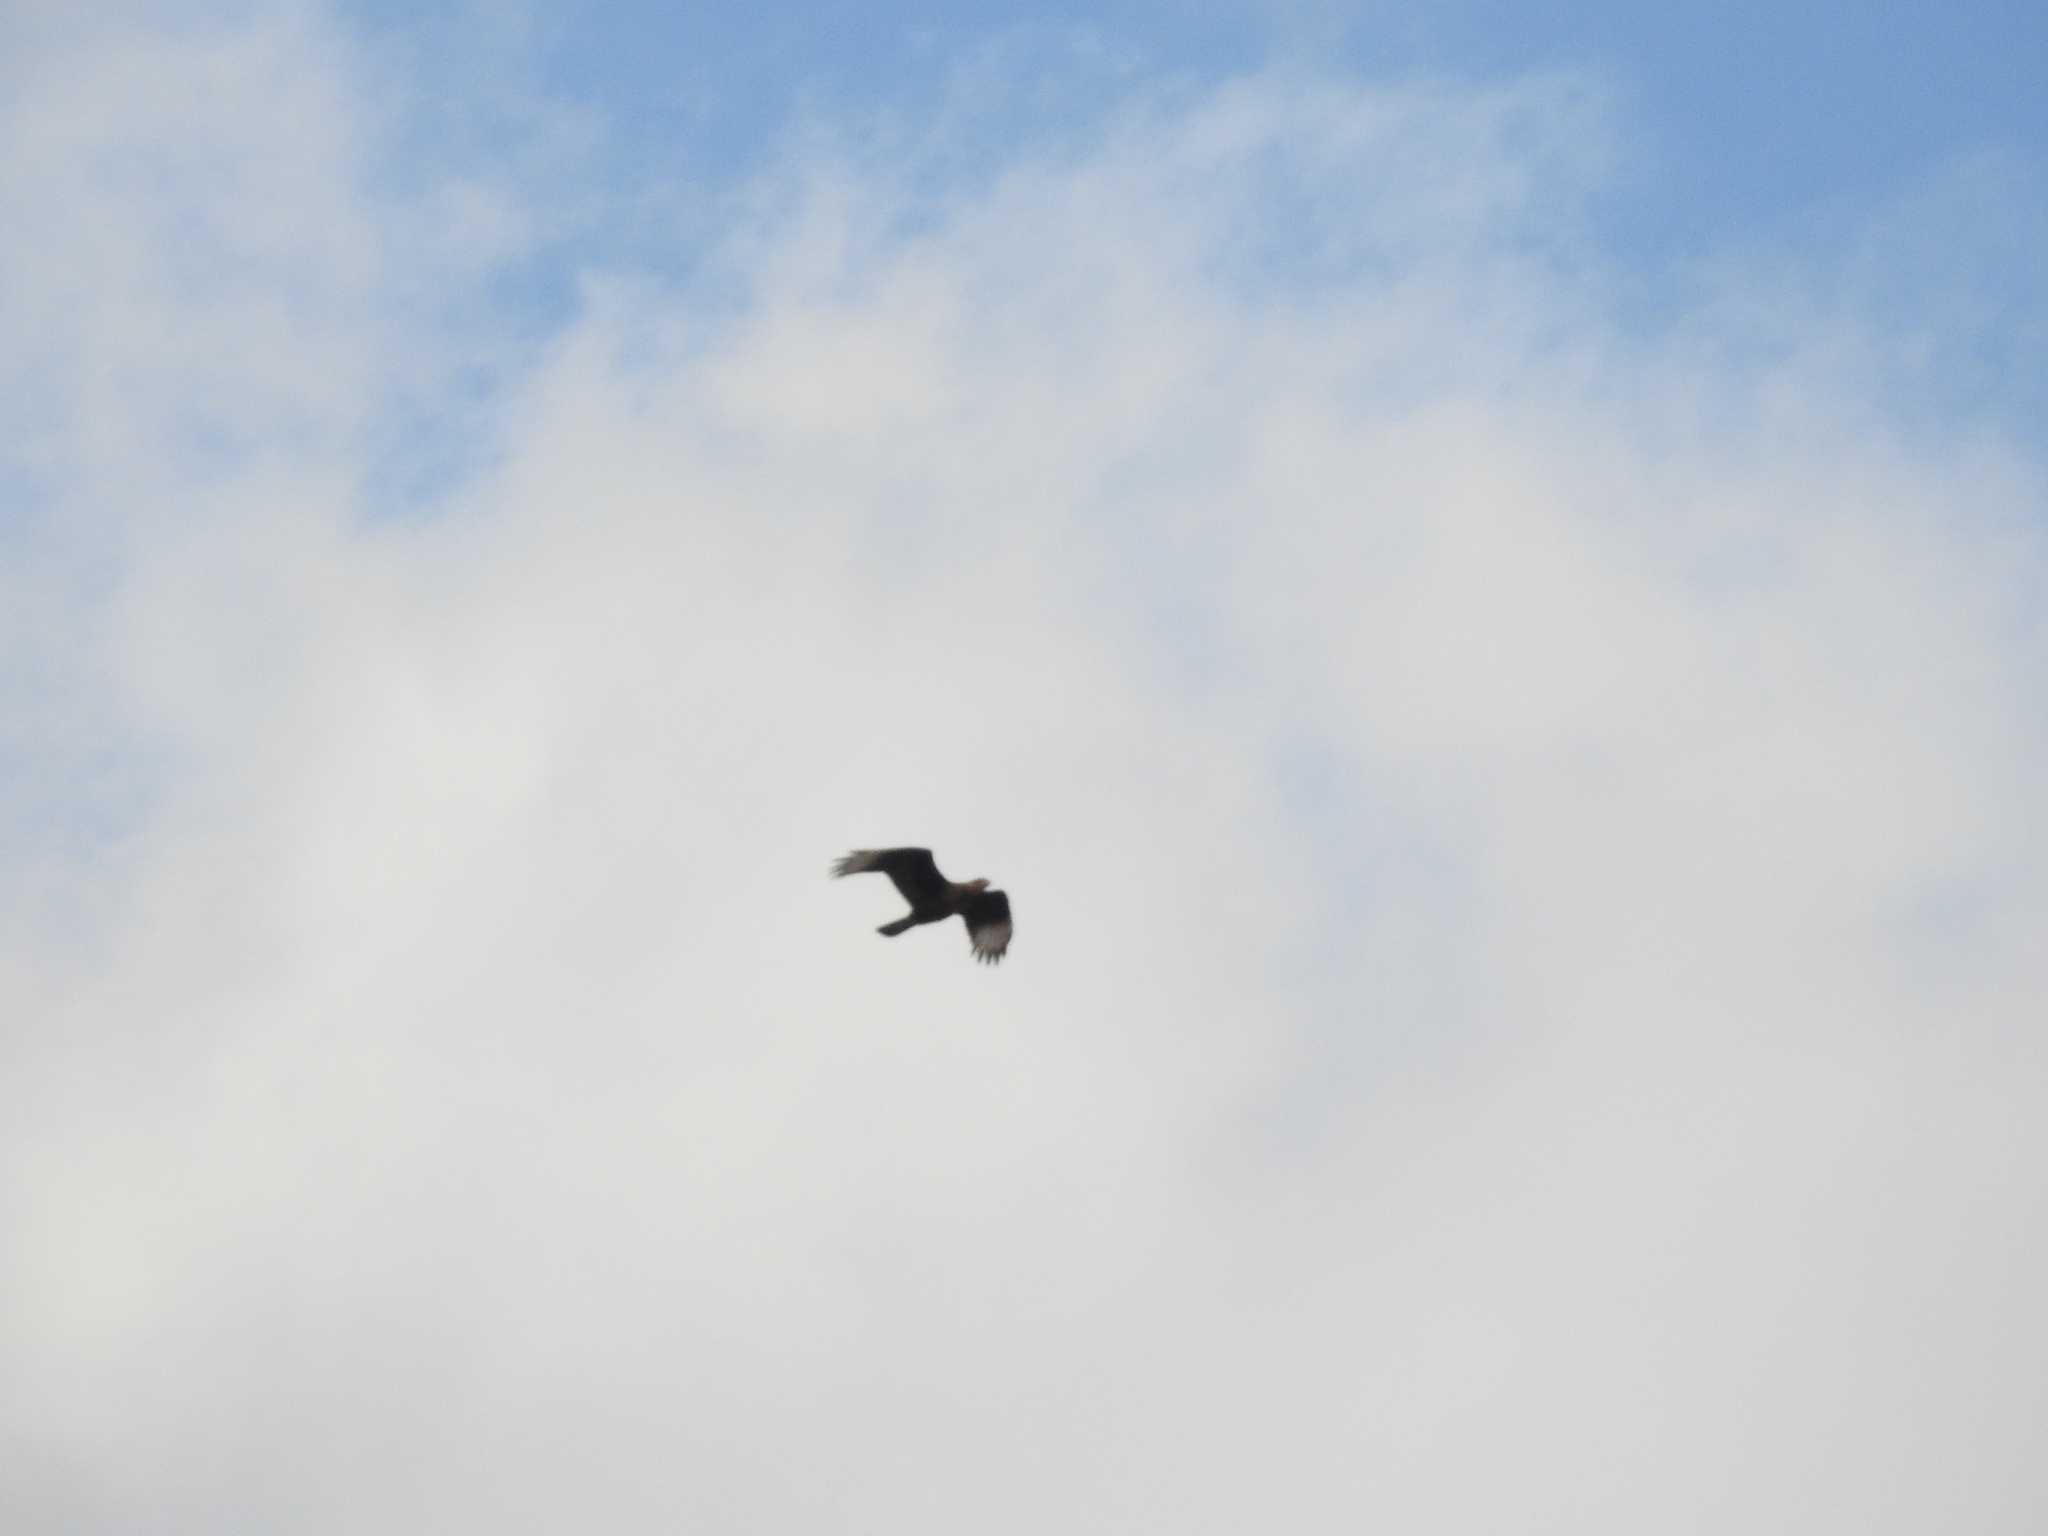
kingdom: Animalia
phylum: Chordata
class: Aves
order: Falconiformes
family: Falconidae
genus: Caracara
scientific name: Caracara plancus
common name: Southern caracara
